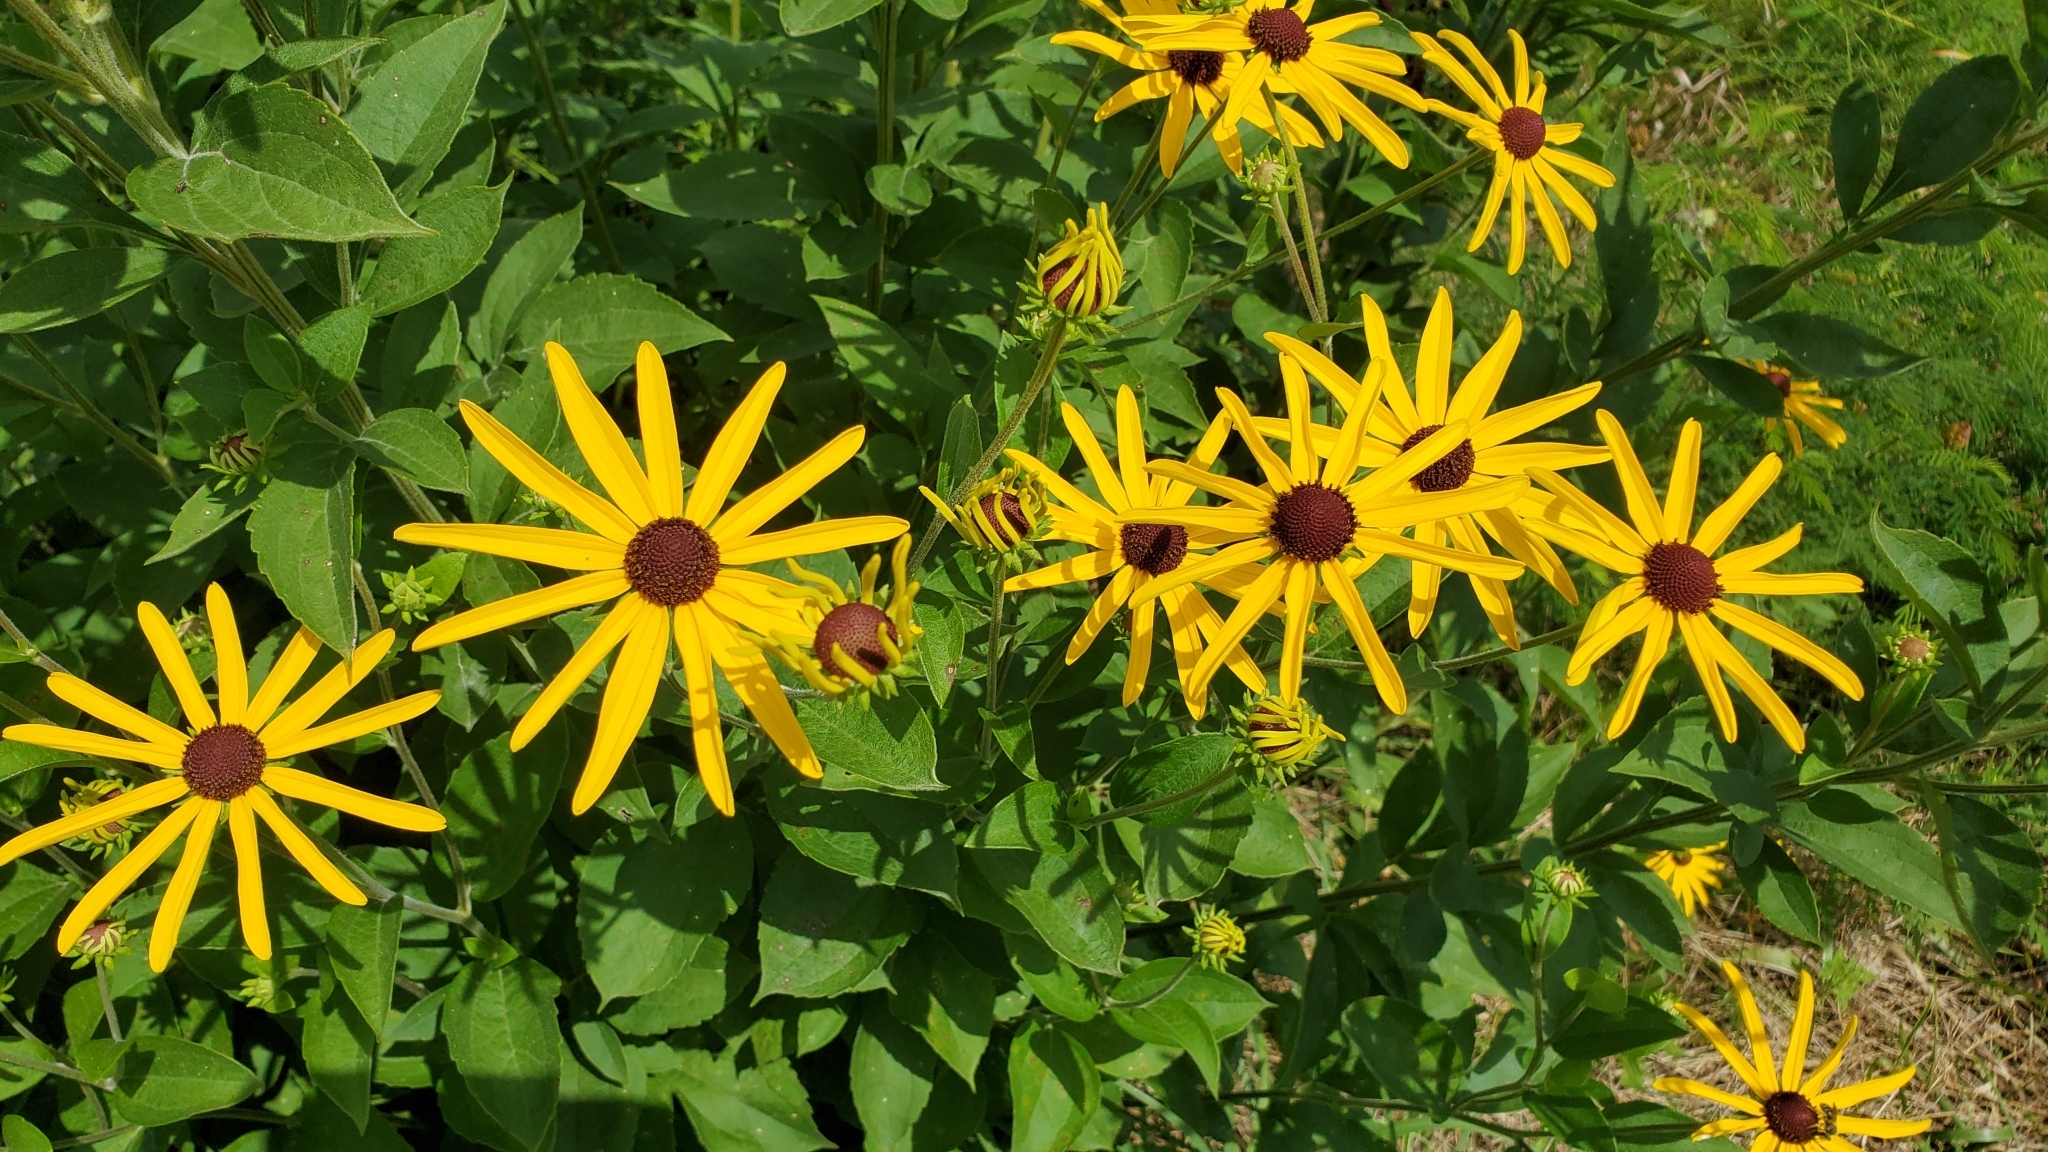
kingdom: Plantae
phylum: Tracheophyta
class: Magnoliopsida
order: Asterales
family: Asteraceae
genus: Rudbeckia
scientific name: Rudbeckia subtomentosa
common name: Sweet coneflower
